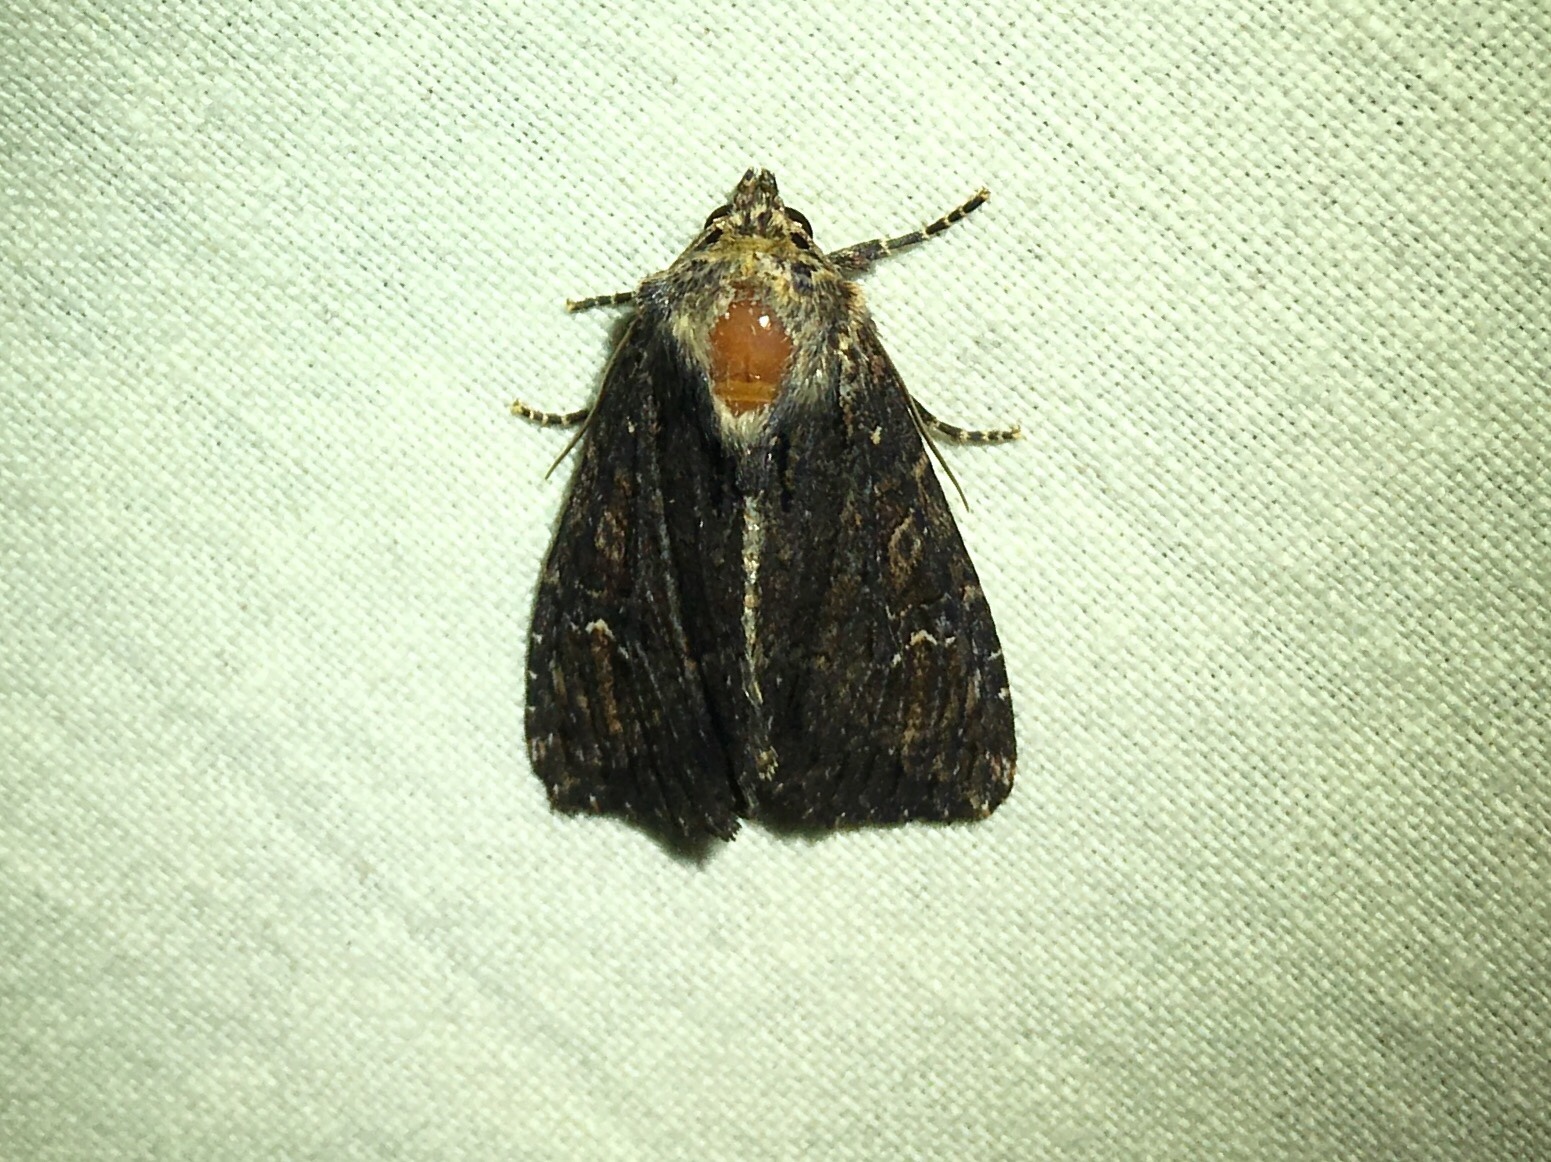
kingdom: Animalia
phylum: Arthropoda
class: Insecta
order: Lepidoptera
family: Noctuidae
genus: Apamea
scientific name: Apamea dubitans
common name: Doubtful apamea moth
